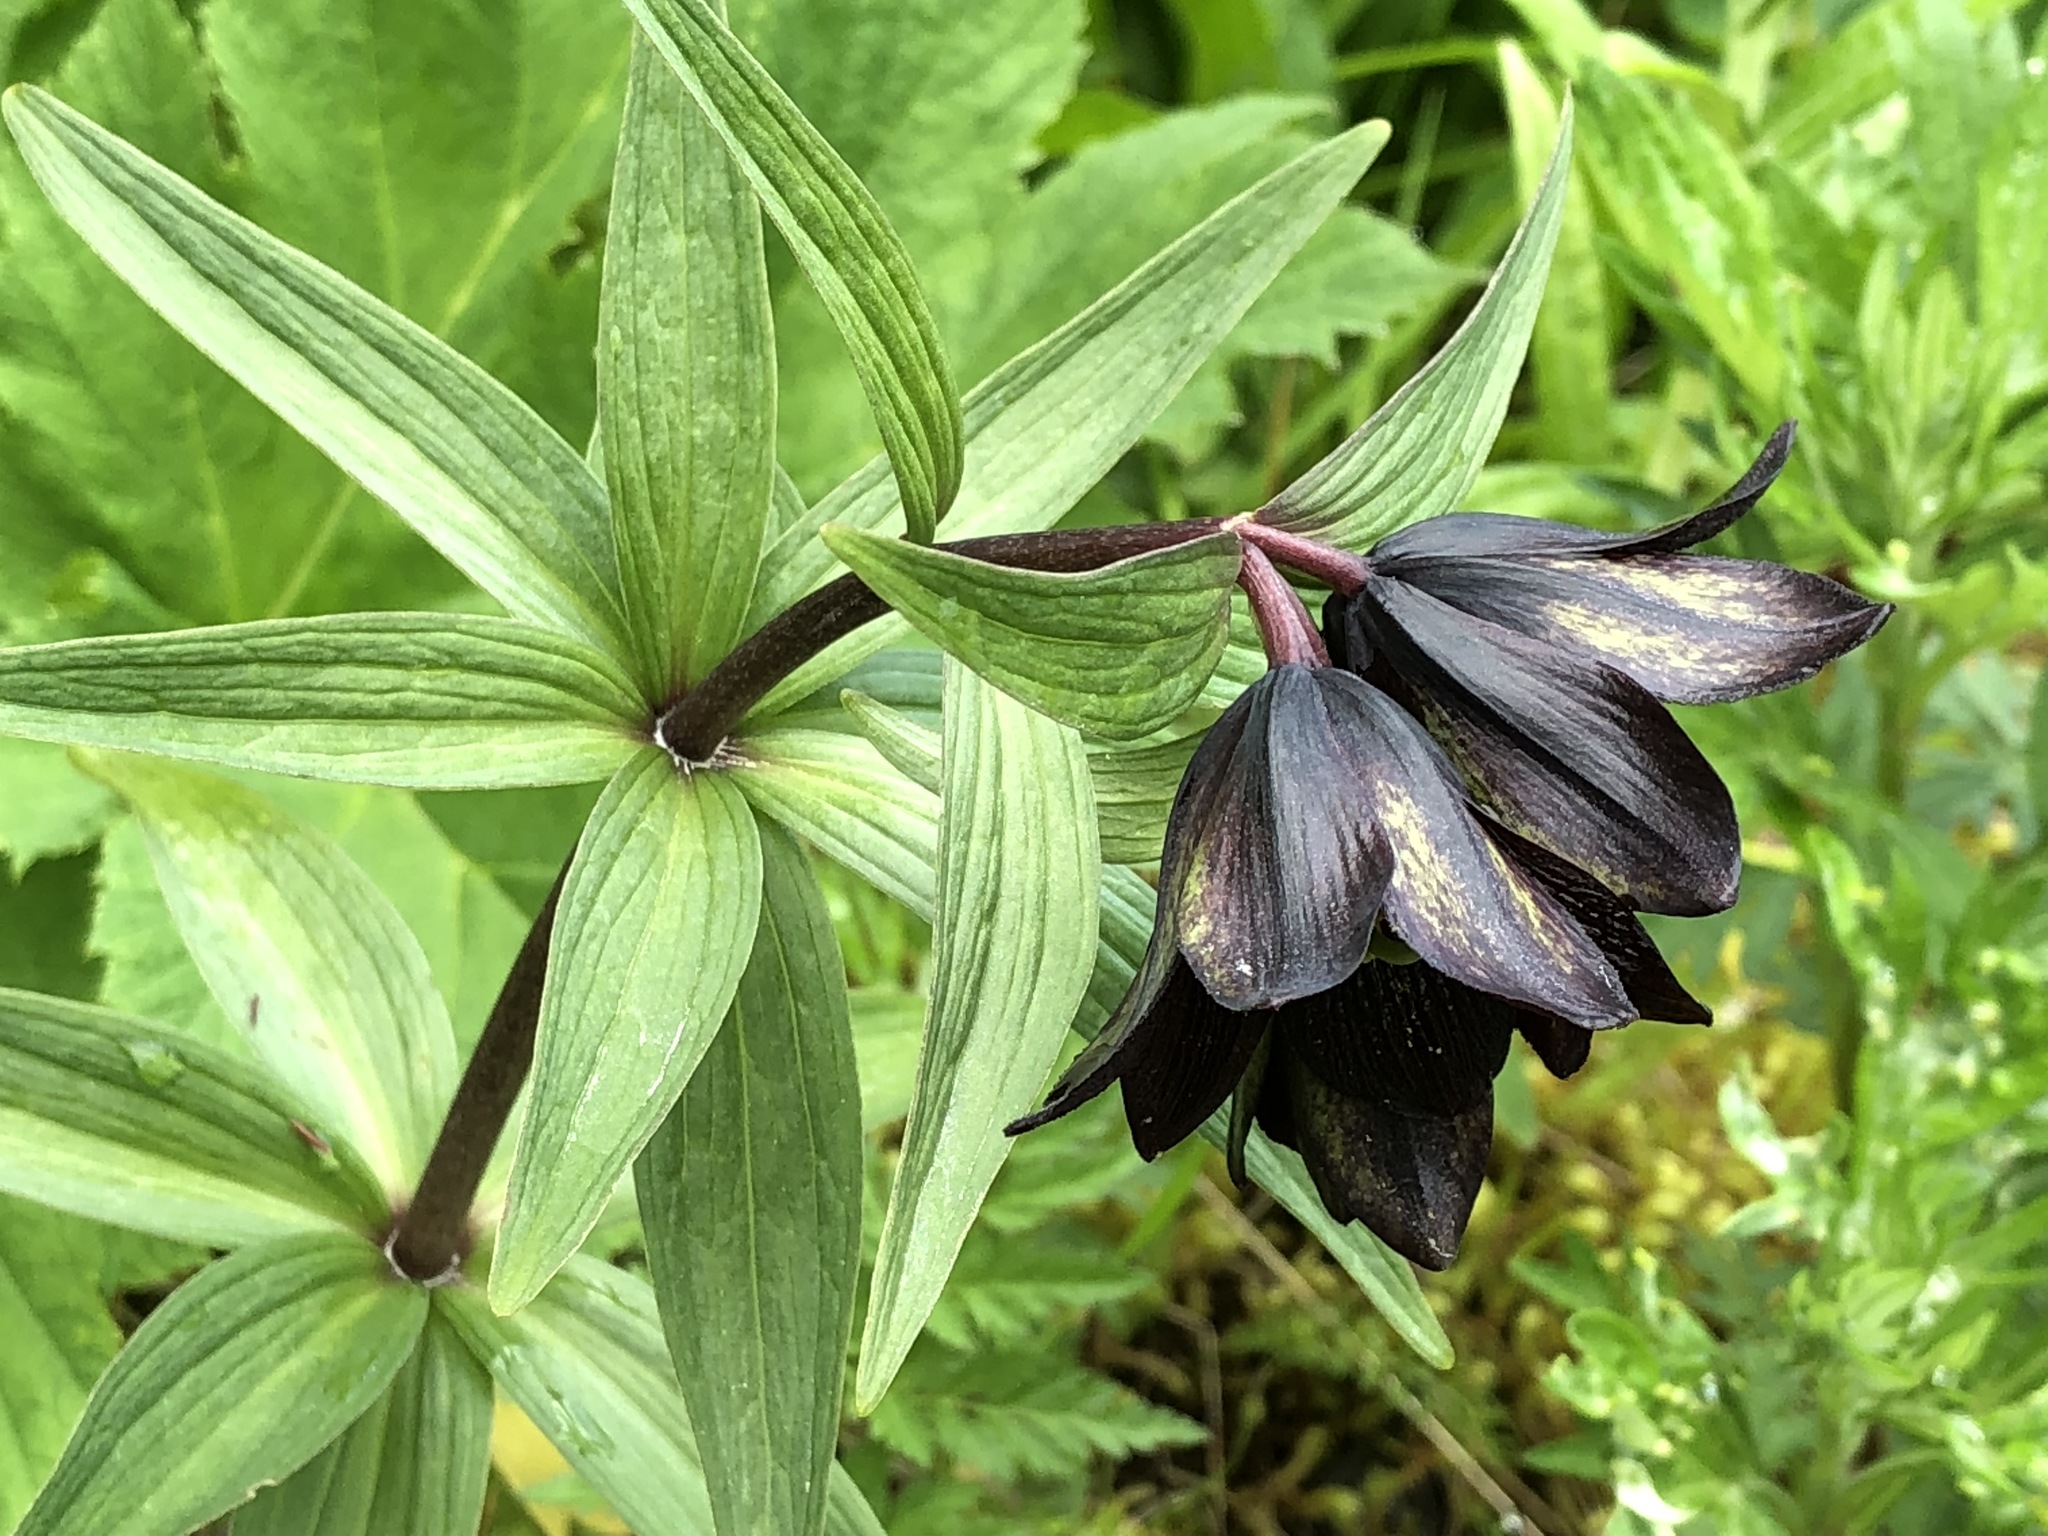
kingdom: Plantae
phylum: Tracheophyta
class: Liliopsida
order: Liliales
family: Liliaceae
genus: Fritillaria
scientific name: Fritillaria camschatcensis
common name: Kamchatka fritillary
